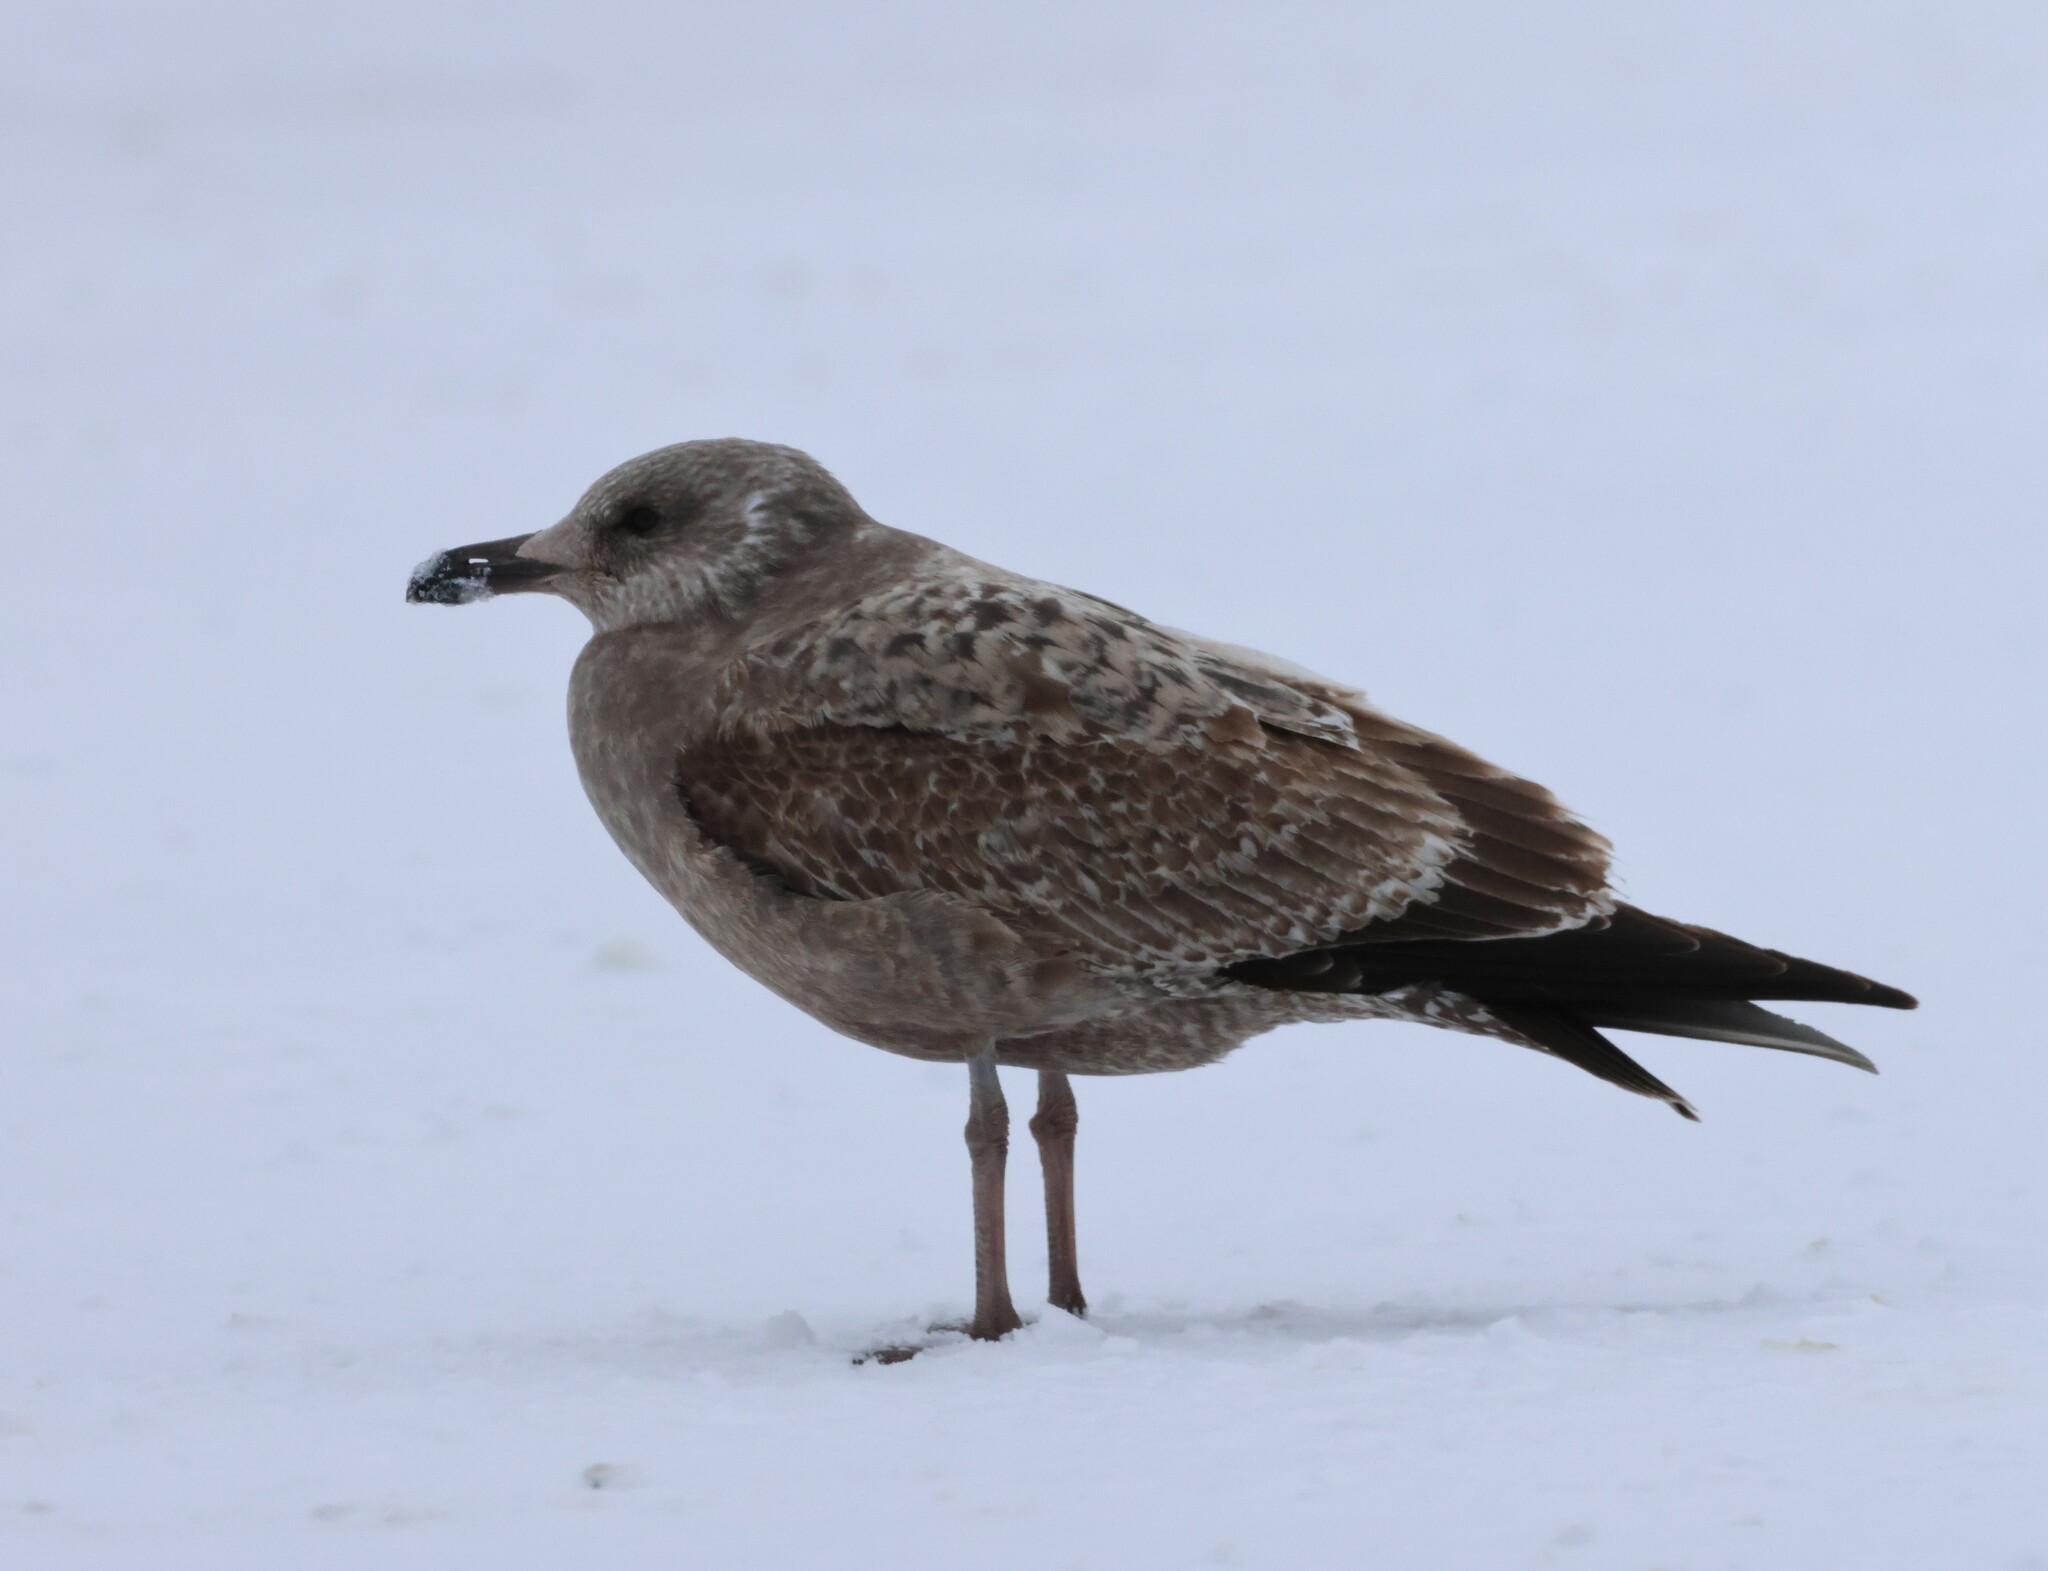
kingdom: Animalia
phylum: Chordata
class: Aves
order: Charadriiformes
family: Laridae
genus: Larus
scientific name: Larus argentatus
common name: Herring gull
